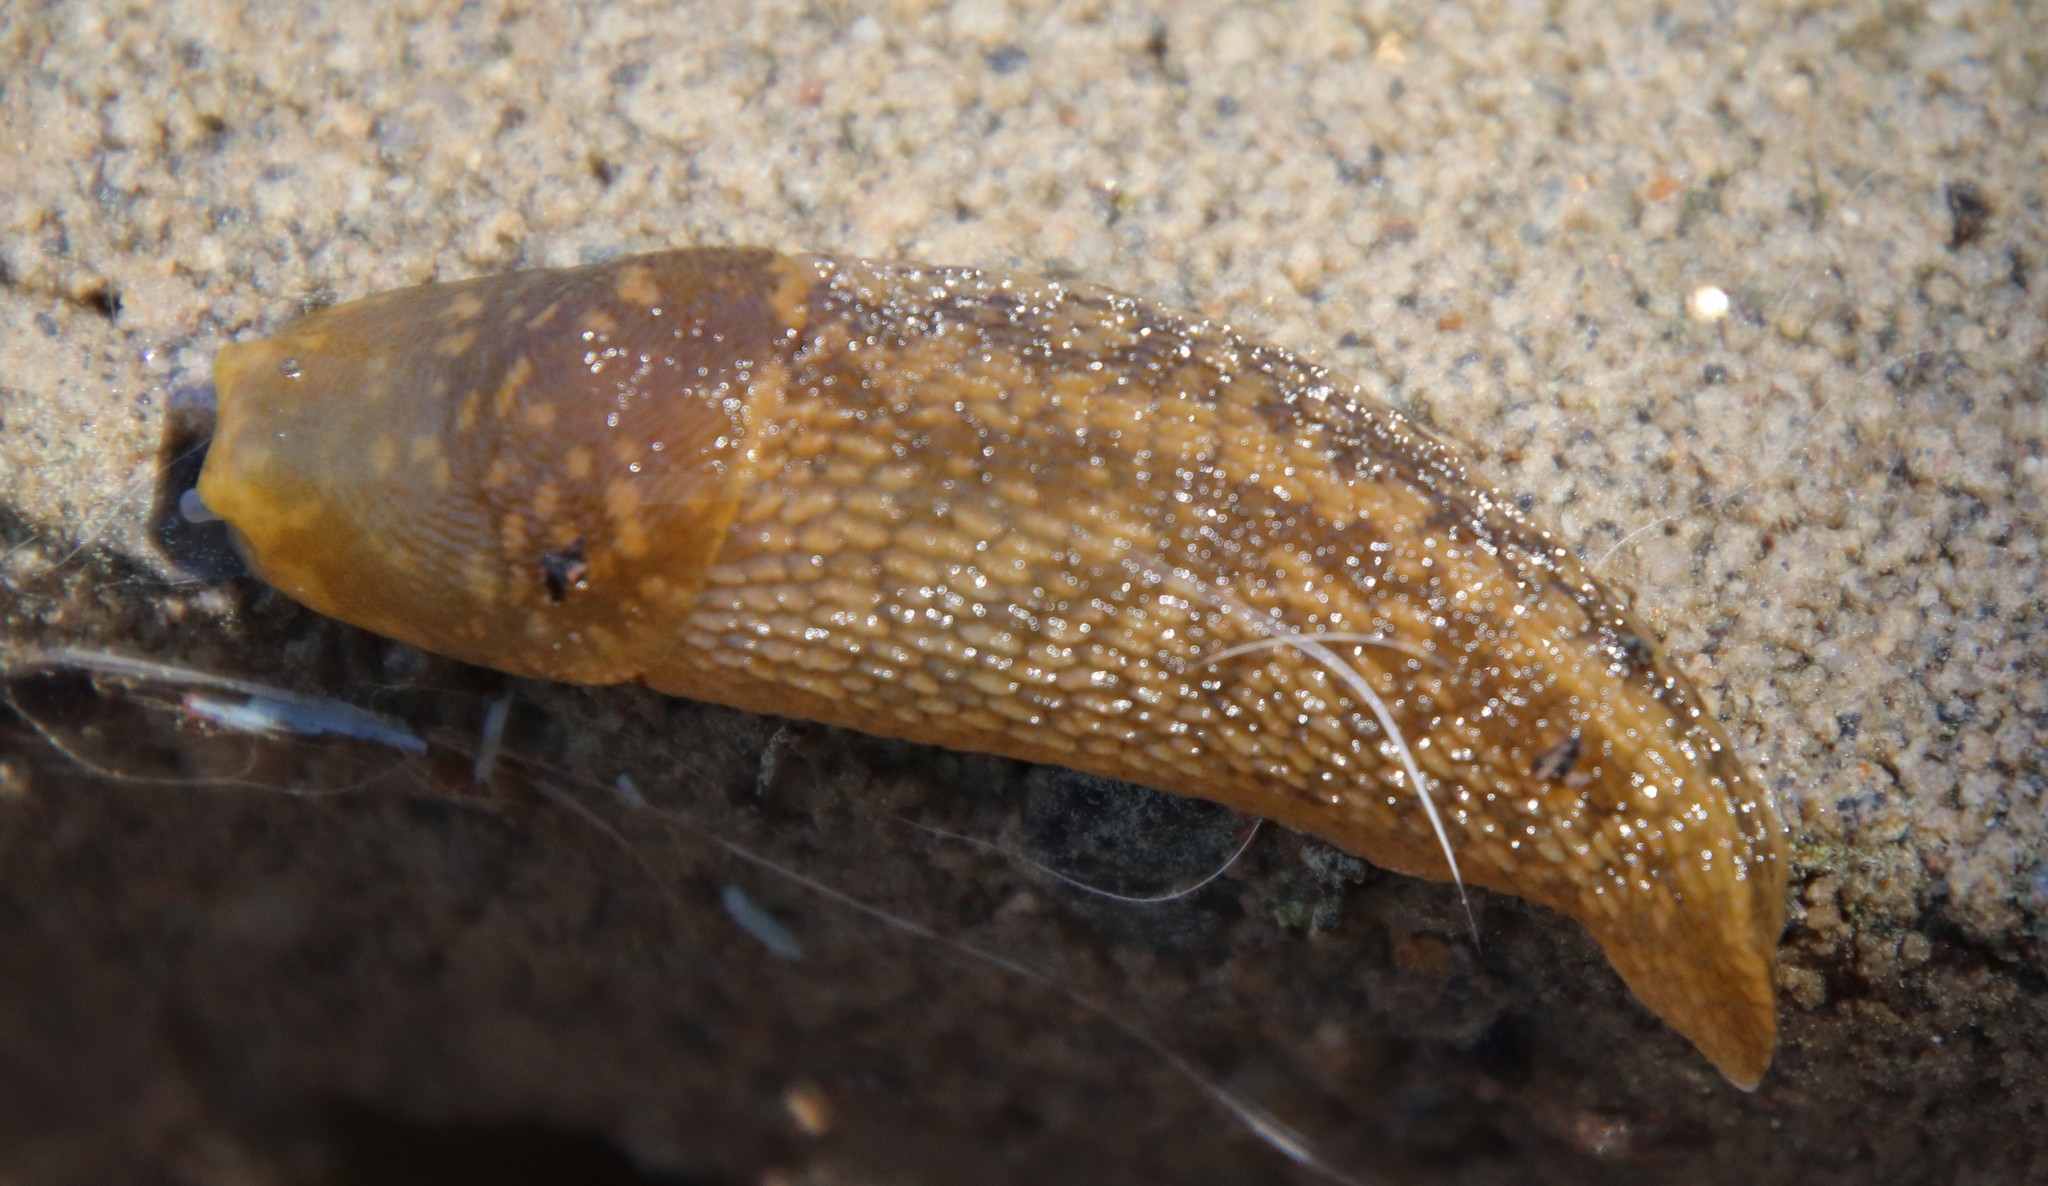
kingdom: Animalia
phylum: Mollusca
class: Gastropoda
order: Stylommatophora
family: Limacidae
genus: Limacus
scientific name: Limacus flavus
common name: Yellow gardenslug
